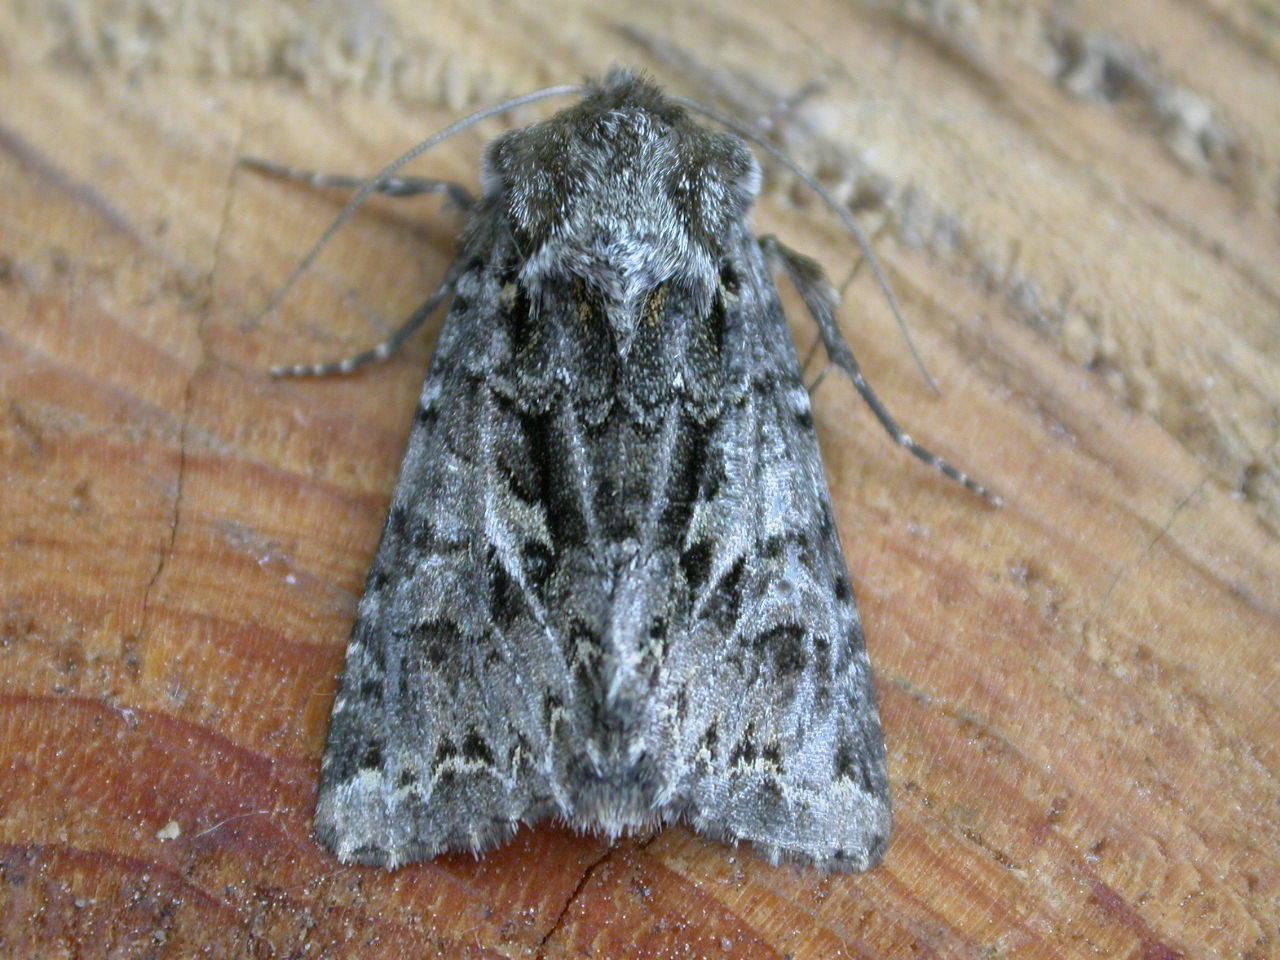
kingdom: Animalia
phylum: Arthropoda
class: Insecta
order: Lepidoptera
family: Noctuidae
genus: Hada
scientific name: Hada plebeja
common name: Shears
